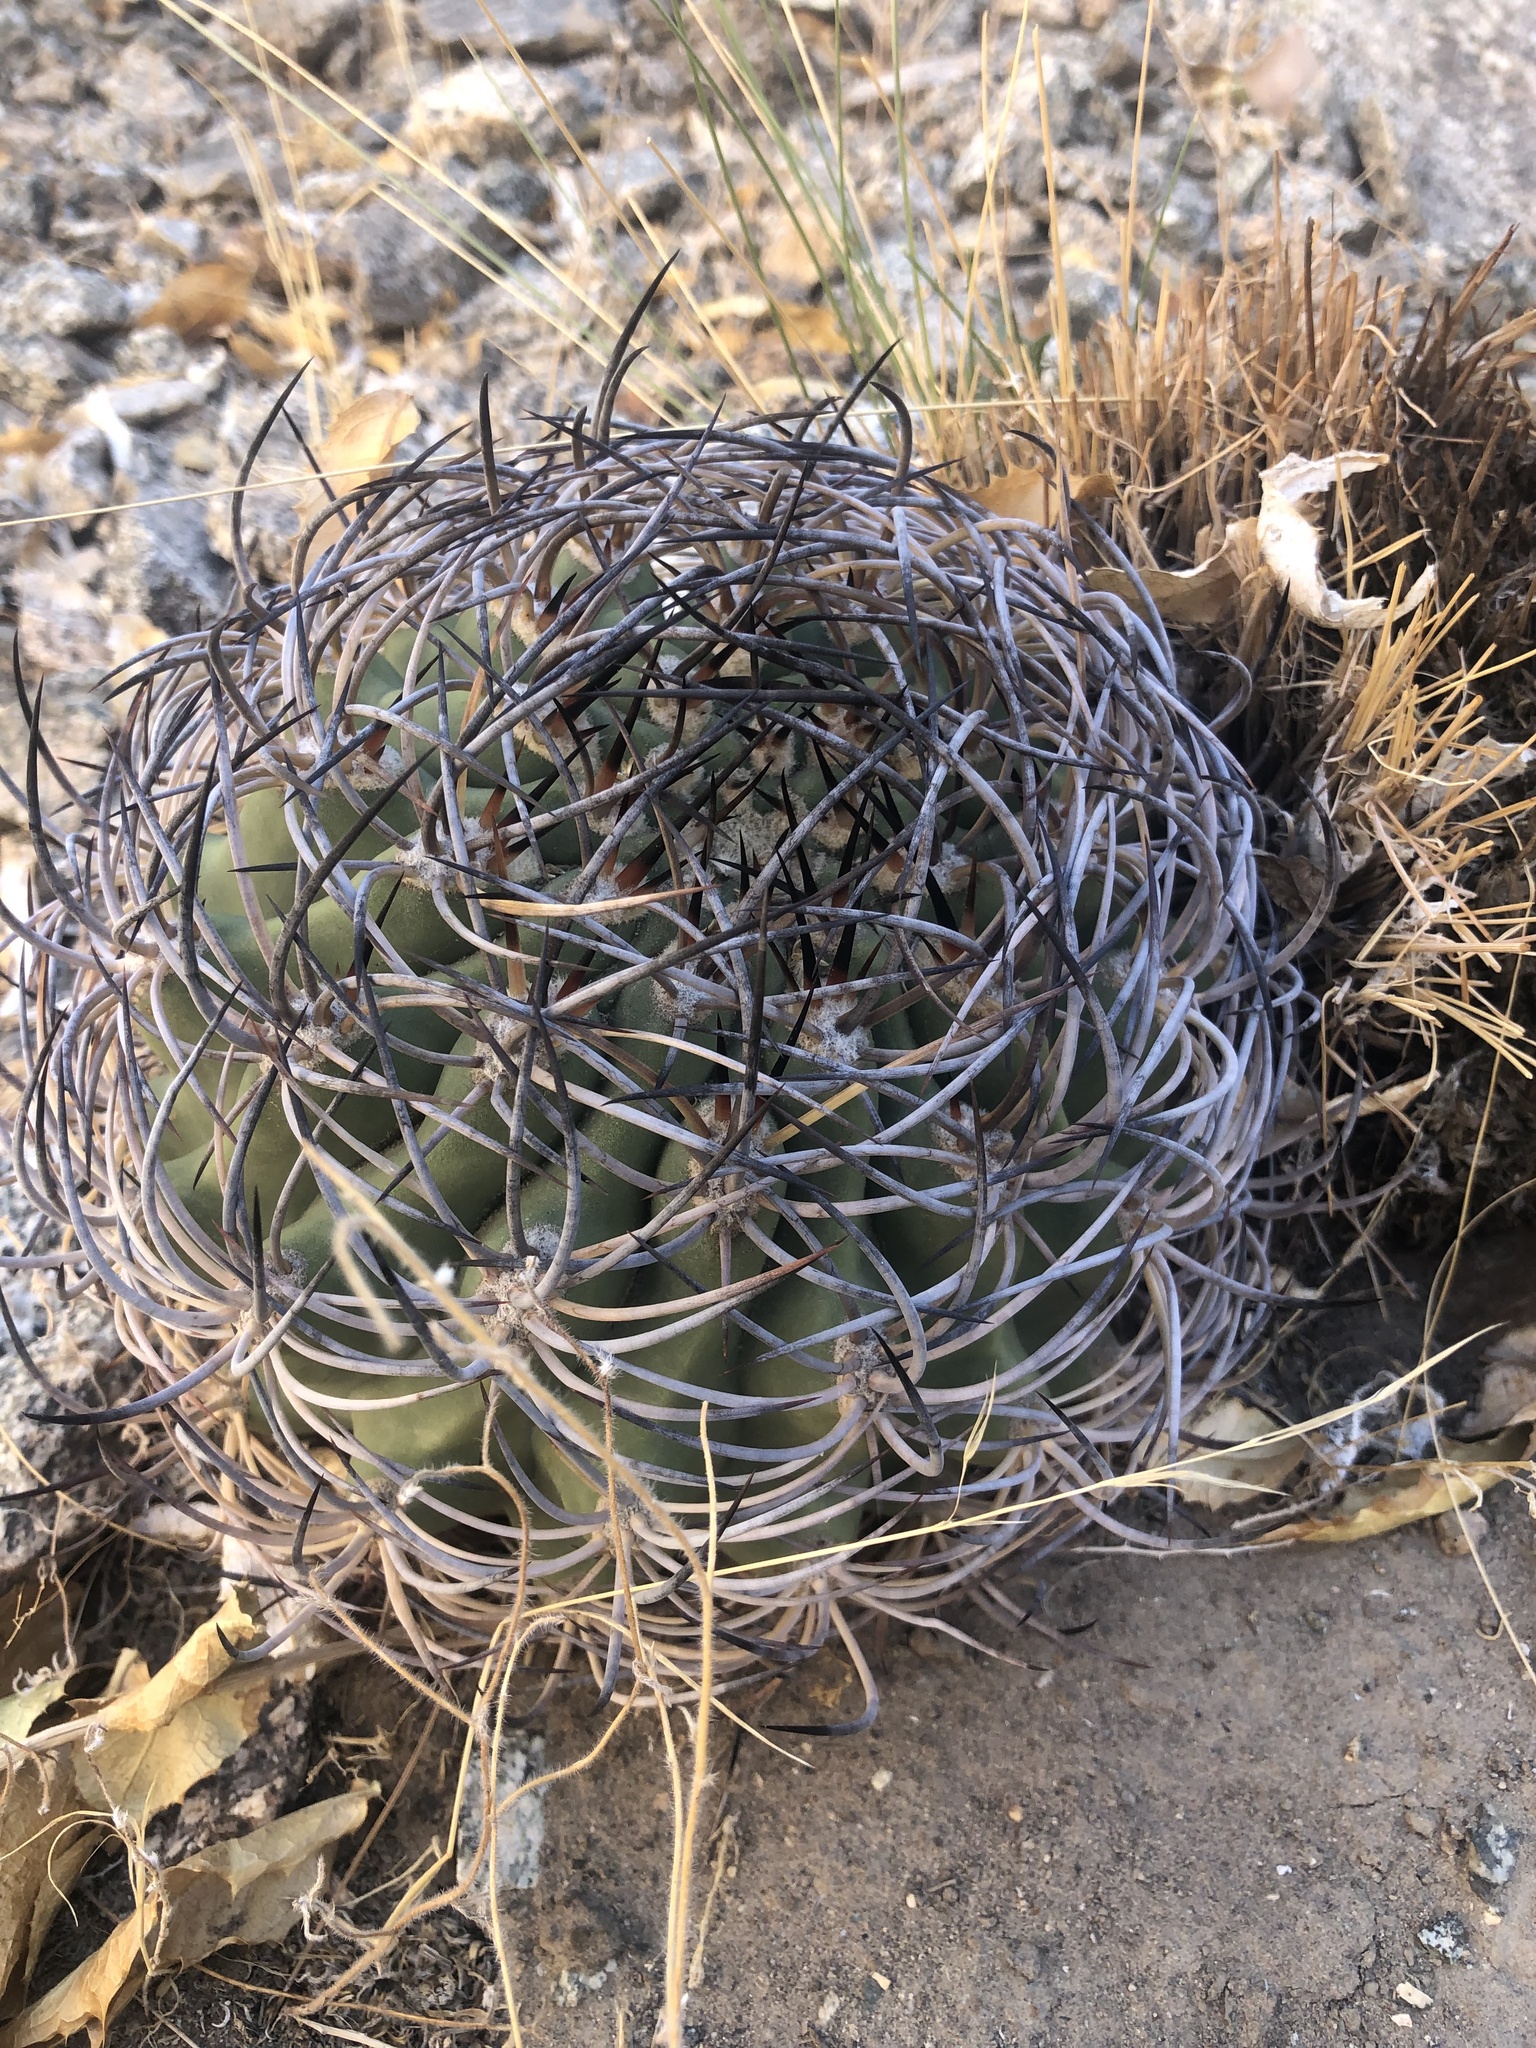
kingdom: Plantae
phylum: Tracheophyta
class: Magnoliopsida
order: Caryophyllales
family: Cactaceae
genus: Eriosyce
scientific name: Eriosyce aurata
